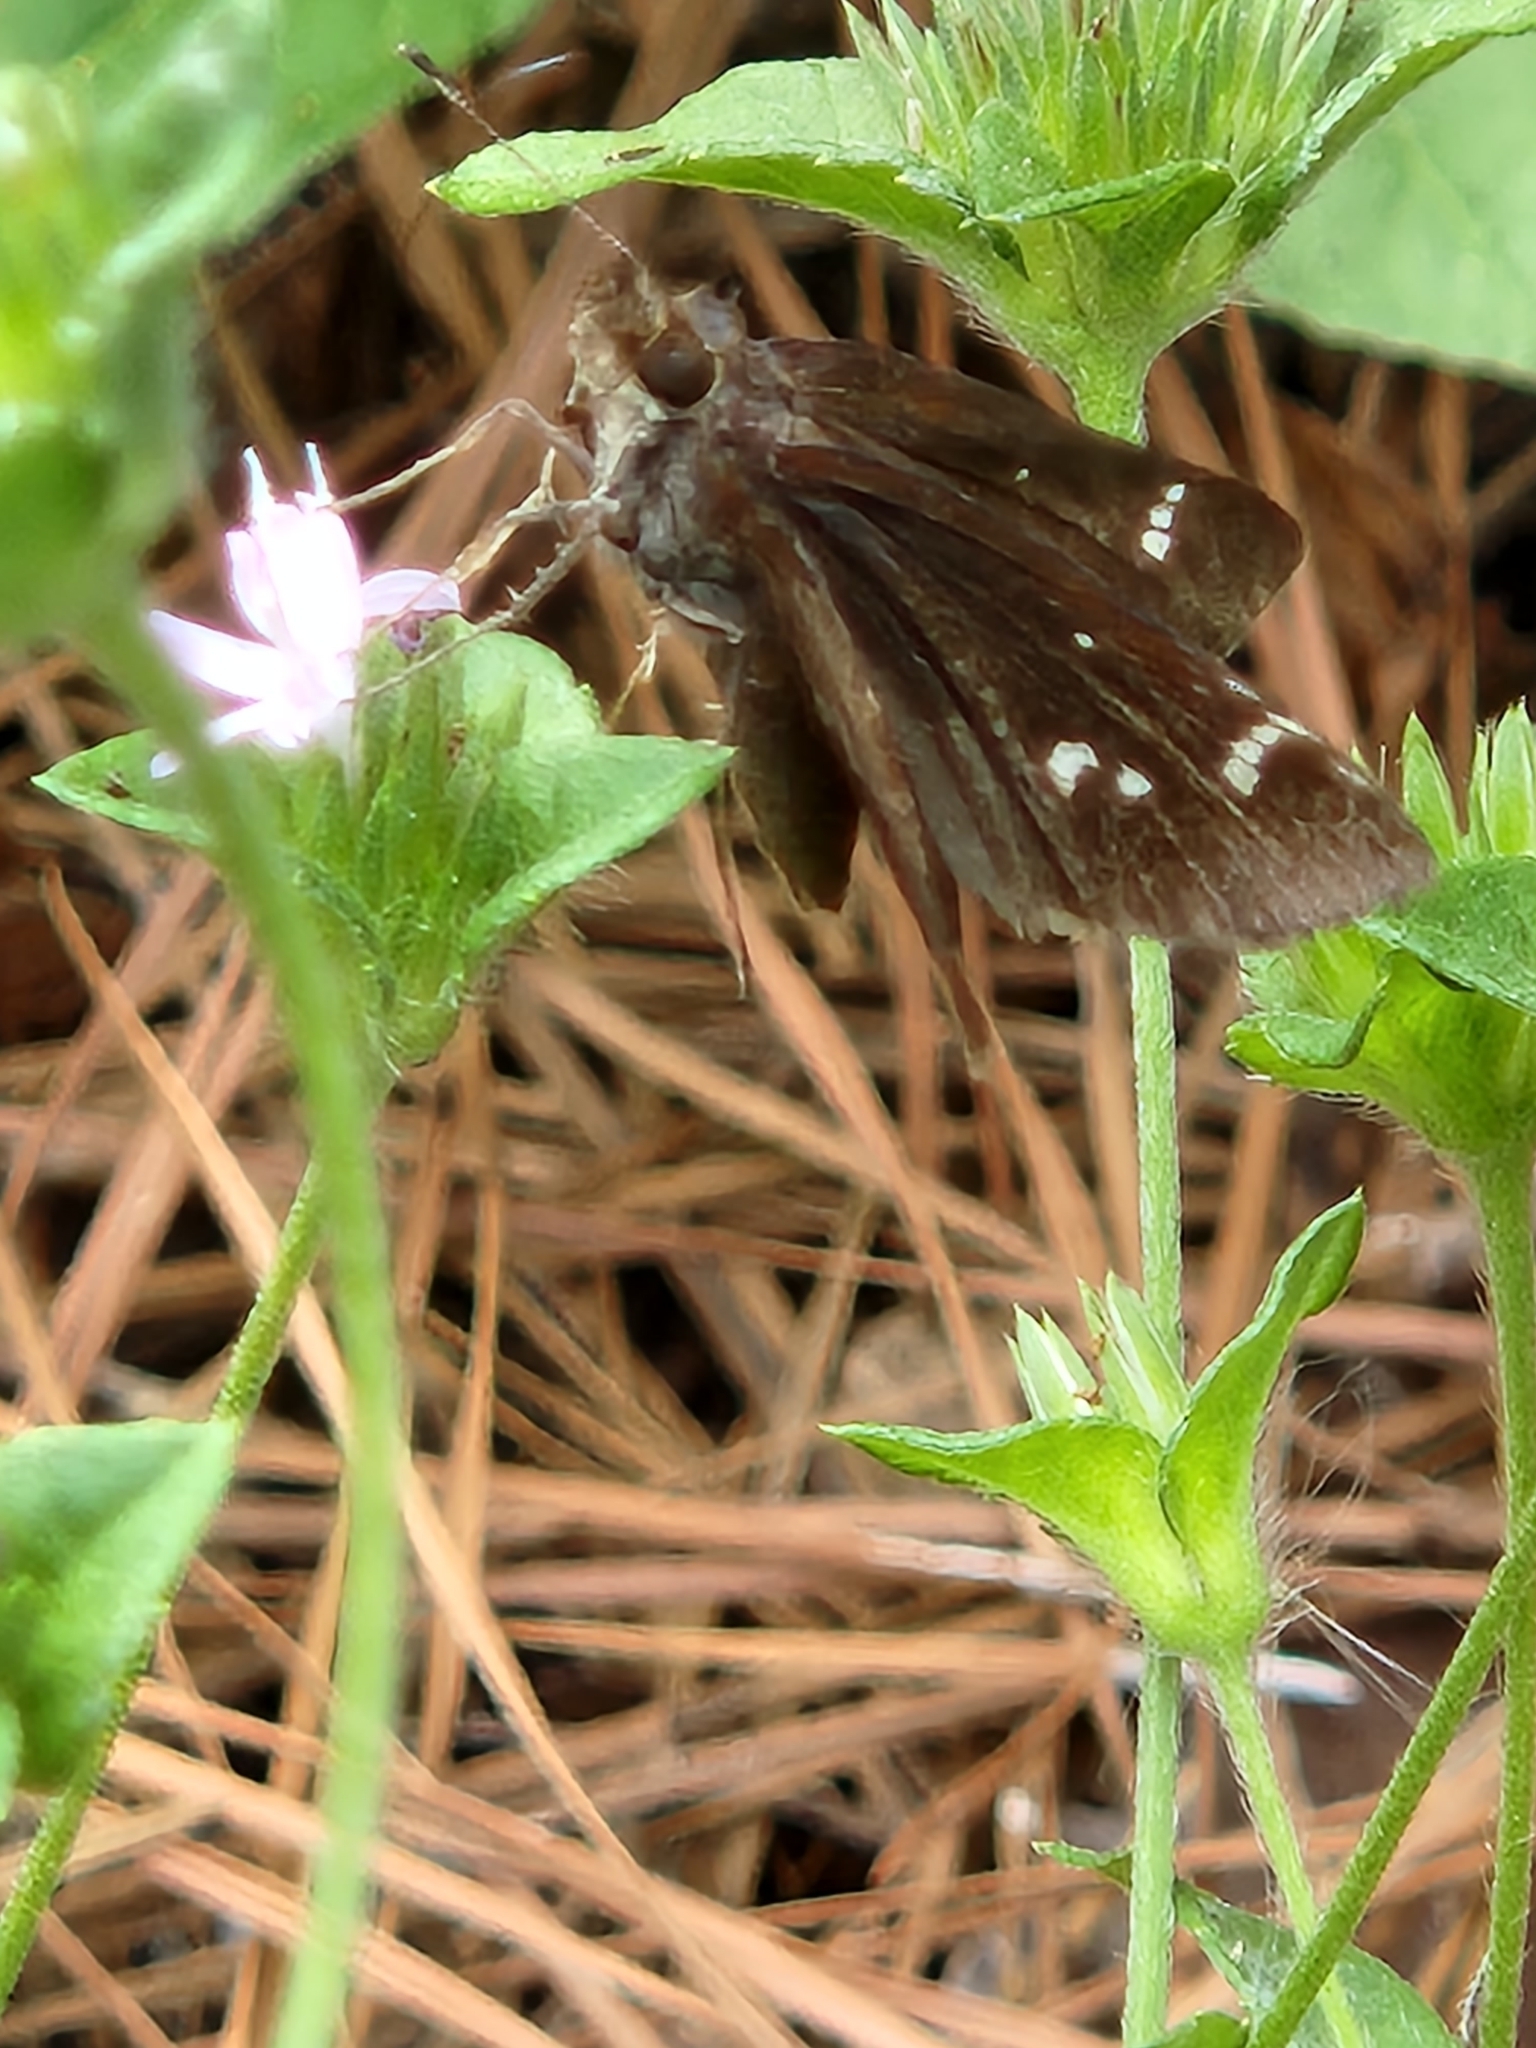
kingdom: Animalia
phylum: Arthropoda
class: Insecta
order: Lepidoptera
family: Hesperiidae
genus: Lerema
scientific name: Lerema accius
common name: Clouded skipper
